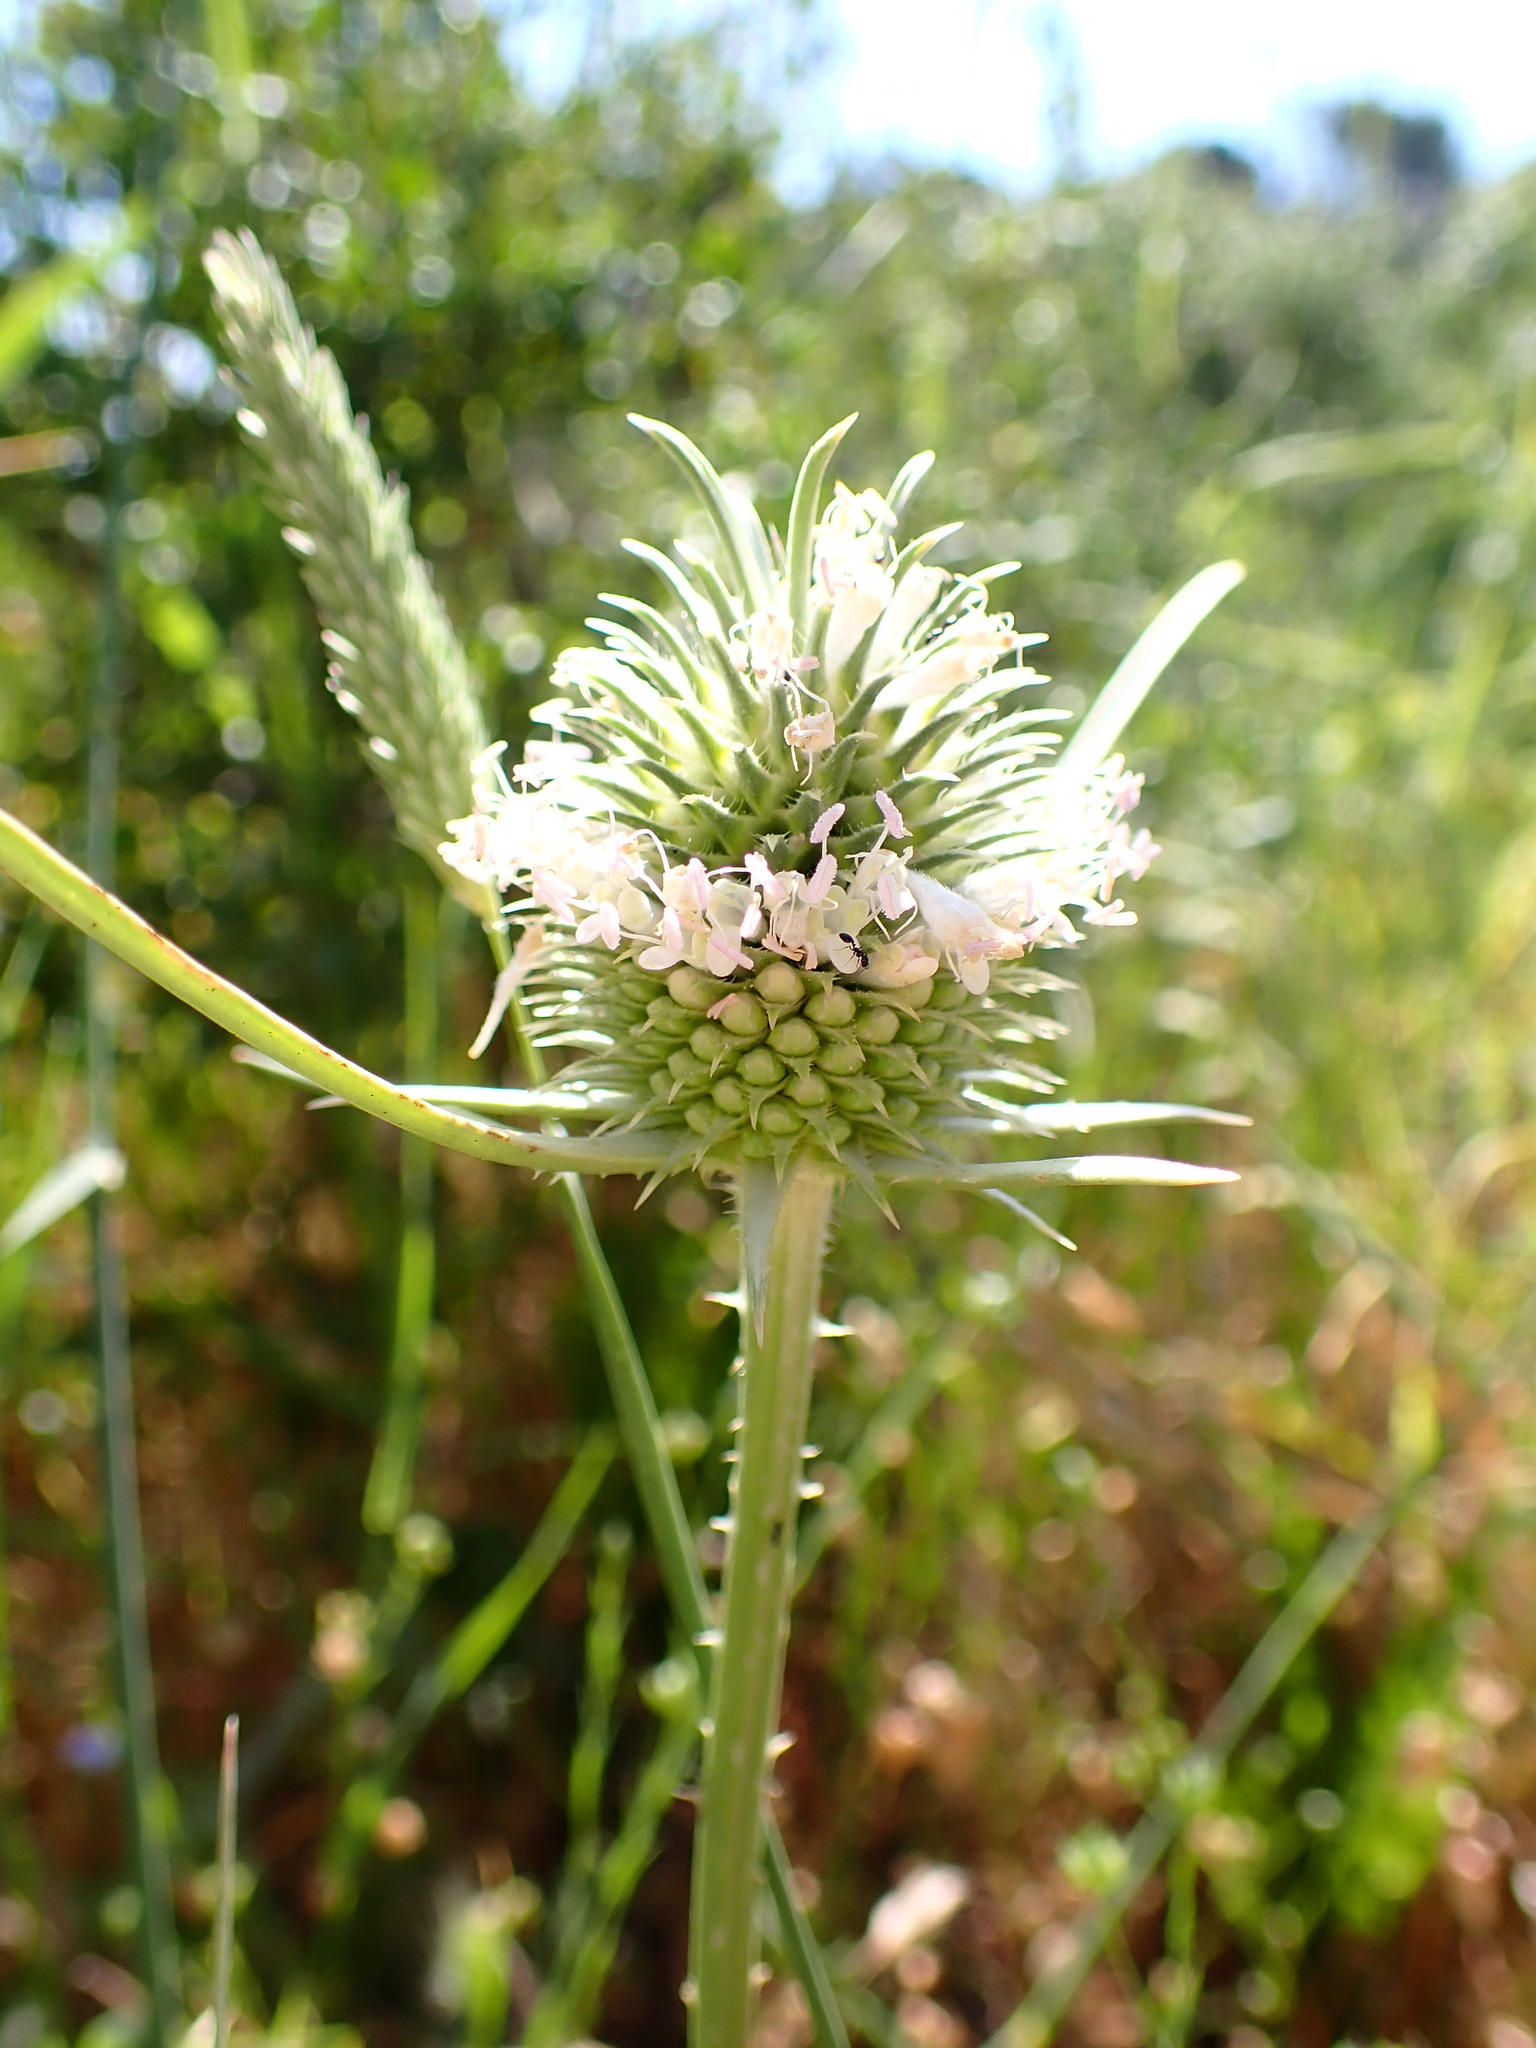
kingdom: Plantae
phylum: Tracheophyta
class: Magnoliopsida
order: Dipsacales
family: Caprifoliaceae
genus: Dipsacus
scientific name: Dipsacus sativus
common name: Fuller's teasel
